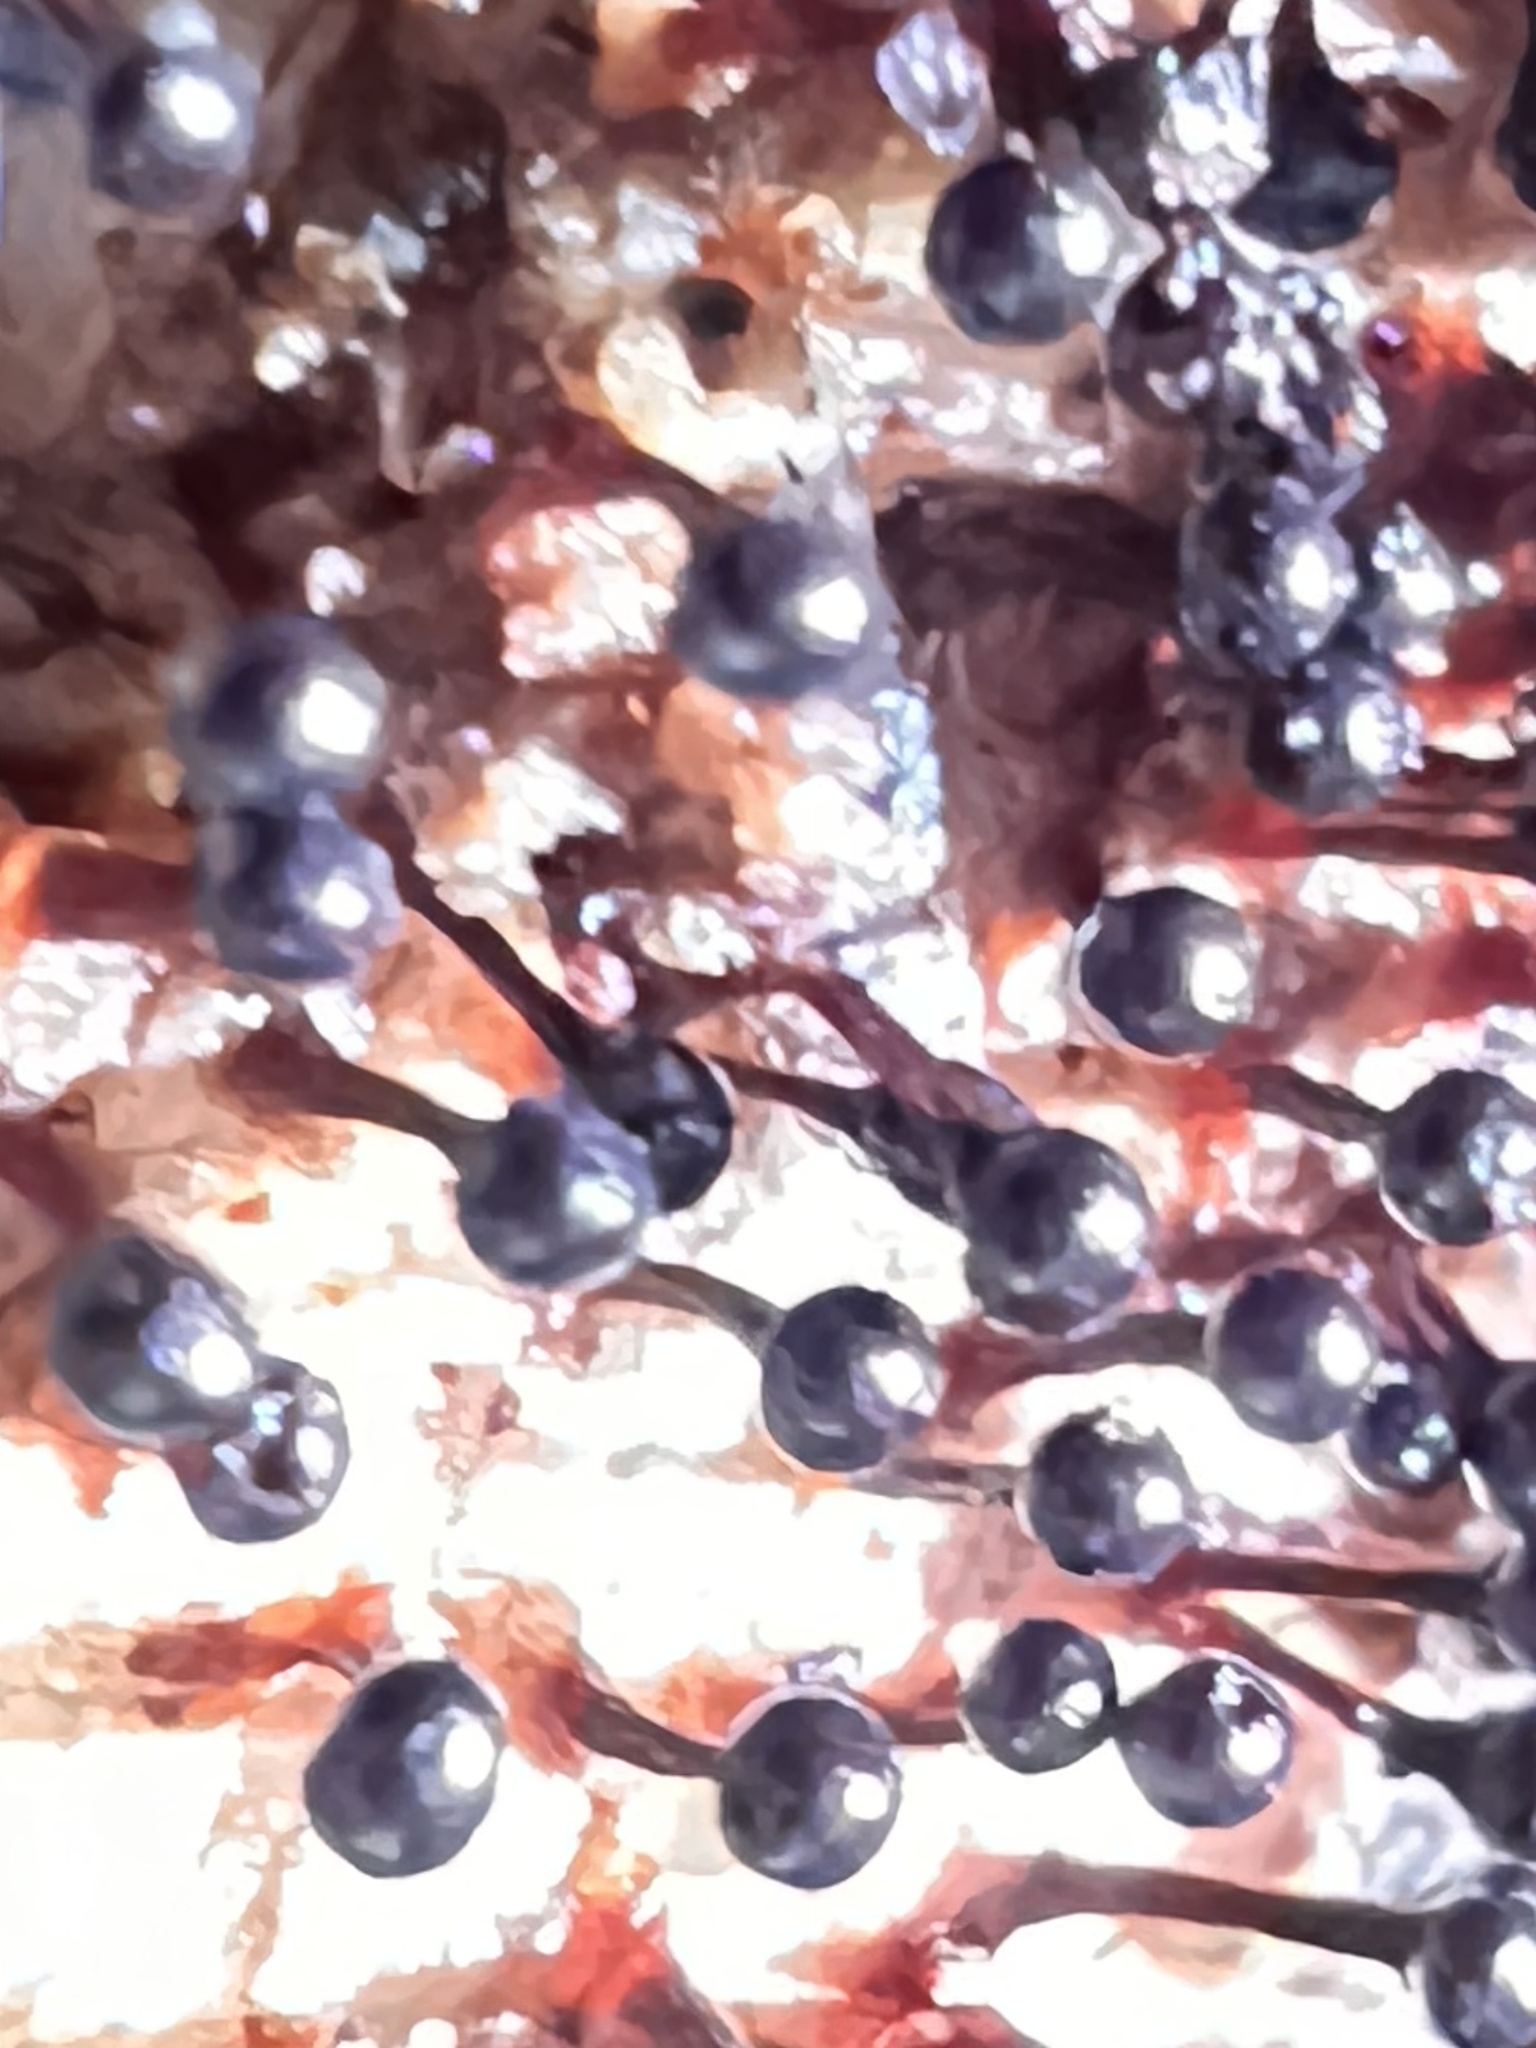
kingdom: Protozoa
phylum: Mycetozoa
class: Myxomycetes
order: Trichiales
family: Trichiaceae
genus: Metatrichia
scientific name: Metatrichia floriformis
